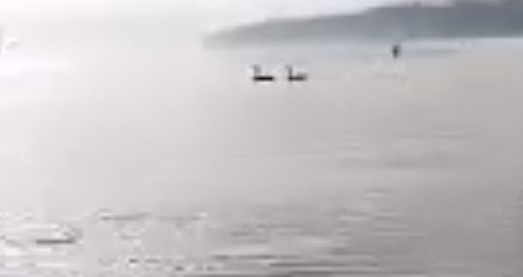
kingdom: Animalia
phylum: Chordata
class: Aves
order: Anseriformes
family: Anatidae
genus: Branta
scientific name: Branta canadensis
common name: Canada goose
